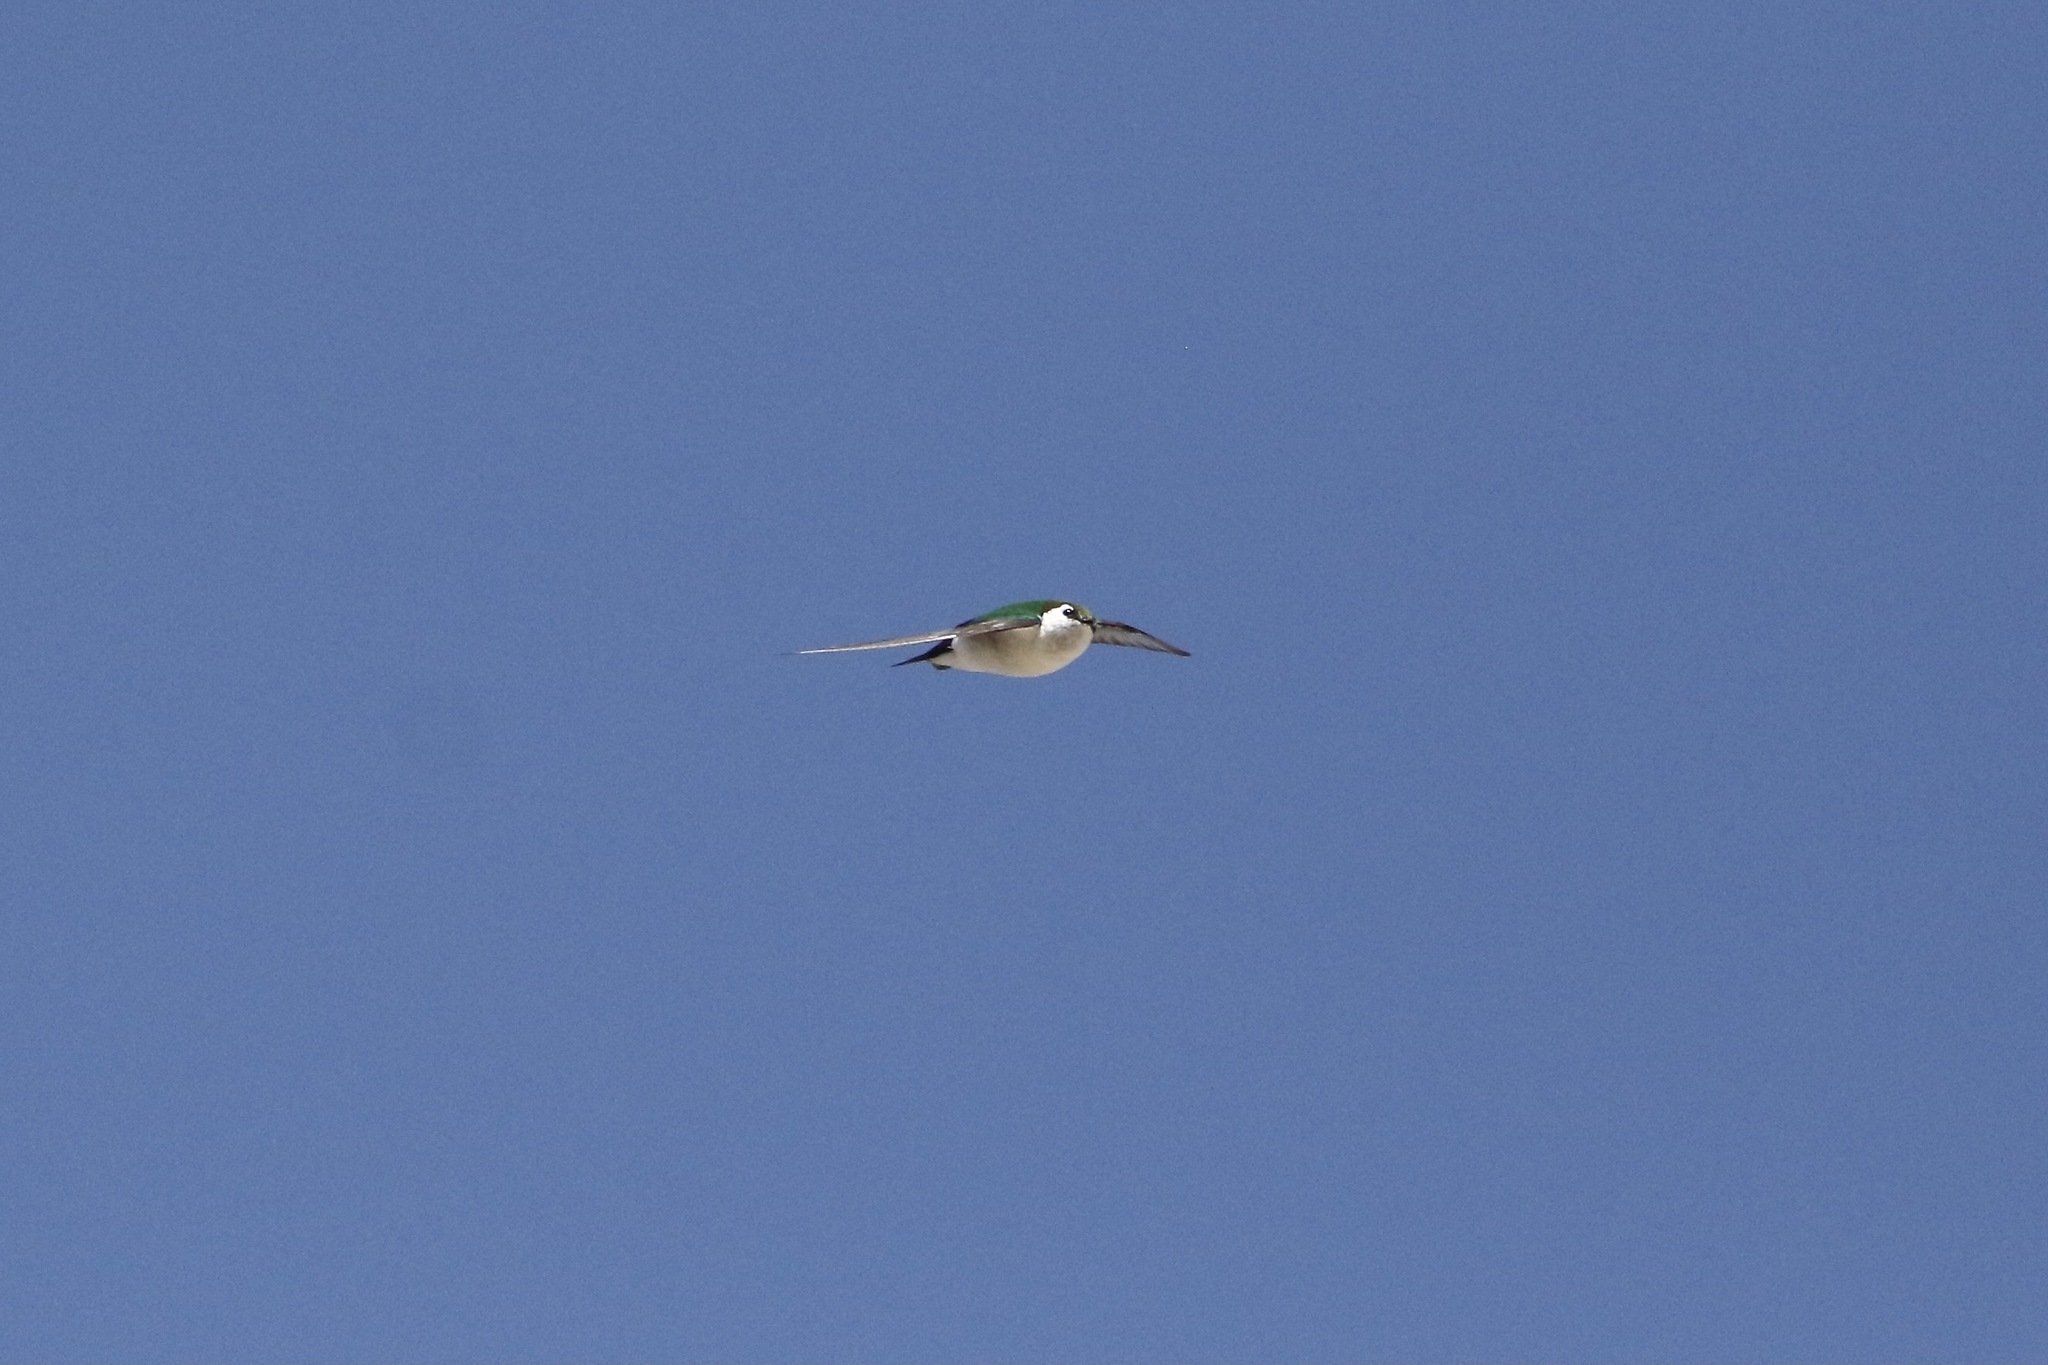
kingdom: Animalia
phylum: Chordata
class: Aves
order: Passeriformes
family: Hirundinidae
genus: Tachycineta
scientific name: Tachycineta thalassina
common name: Violet-green swallow
